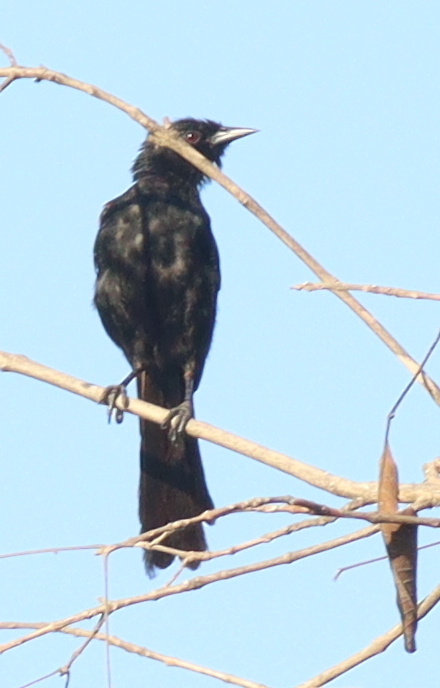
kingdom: Animalia
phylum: Chordata
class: Aves
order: Passeriformes
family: Icteridae
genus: Icterus
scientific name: Icterus cayanensis
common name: Epaulet oriole
